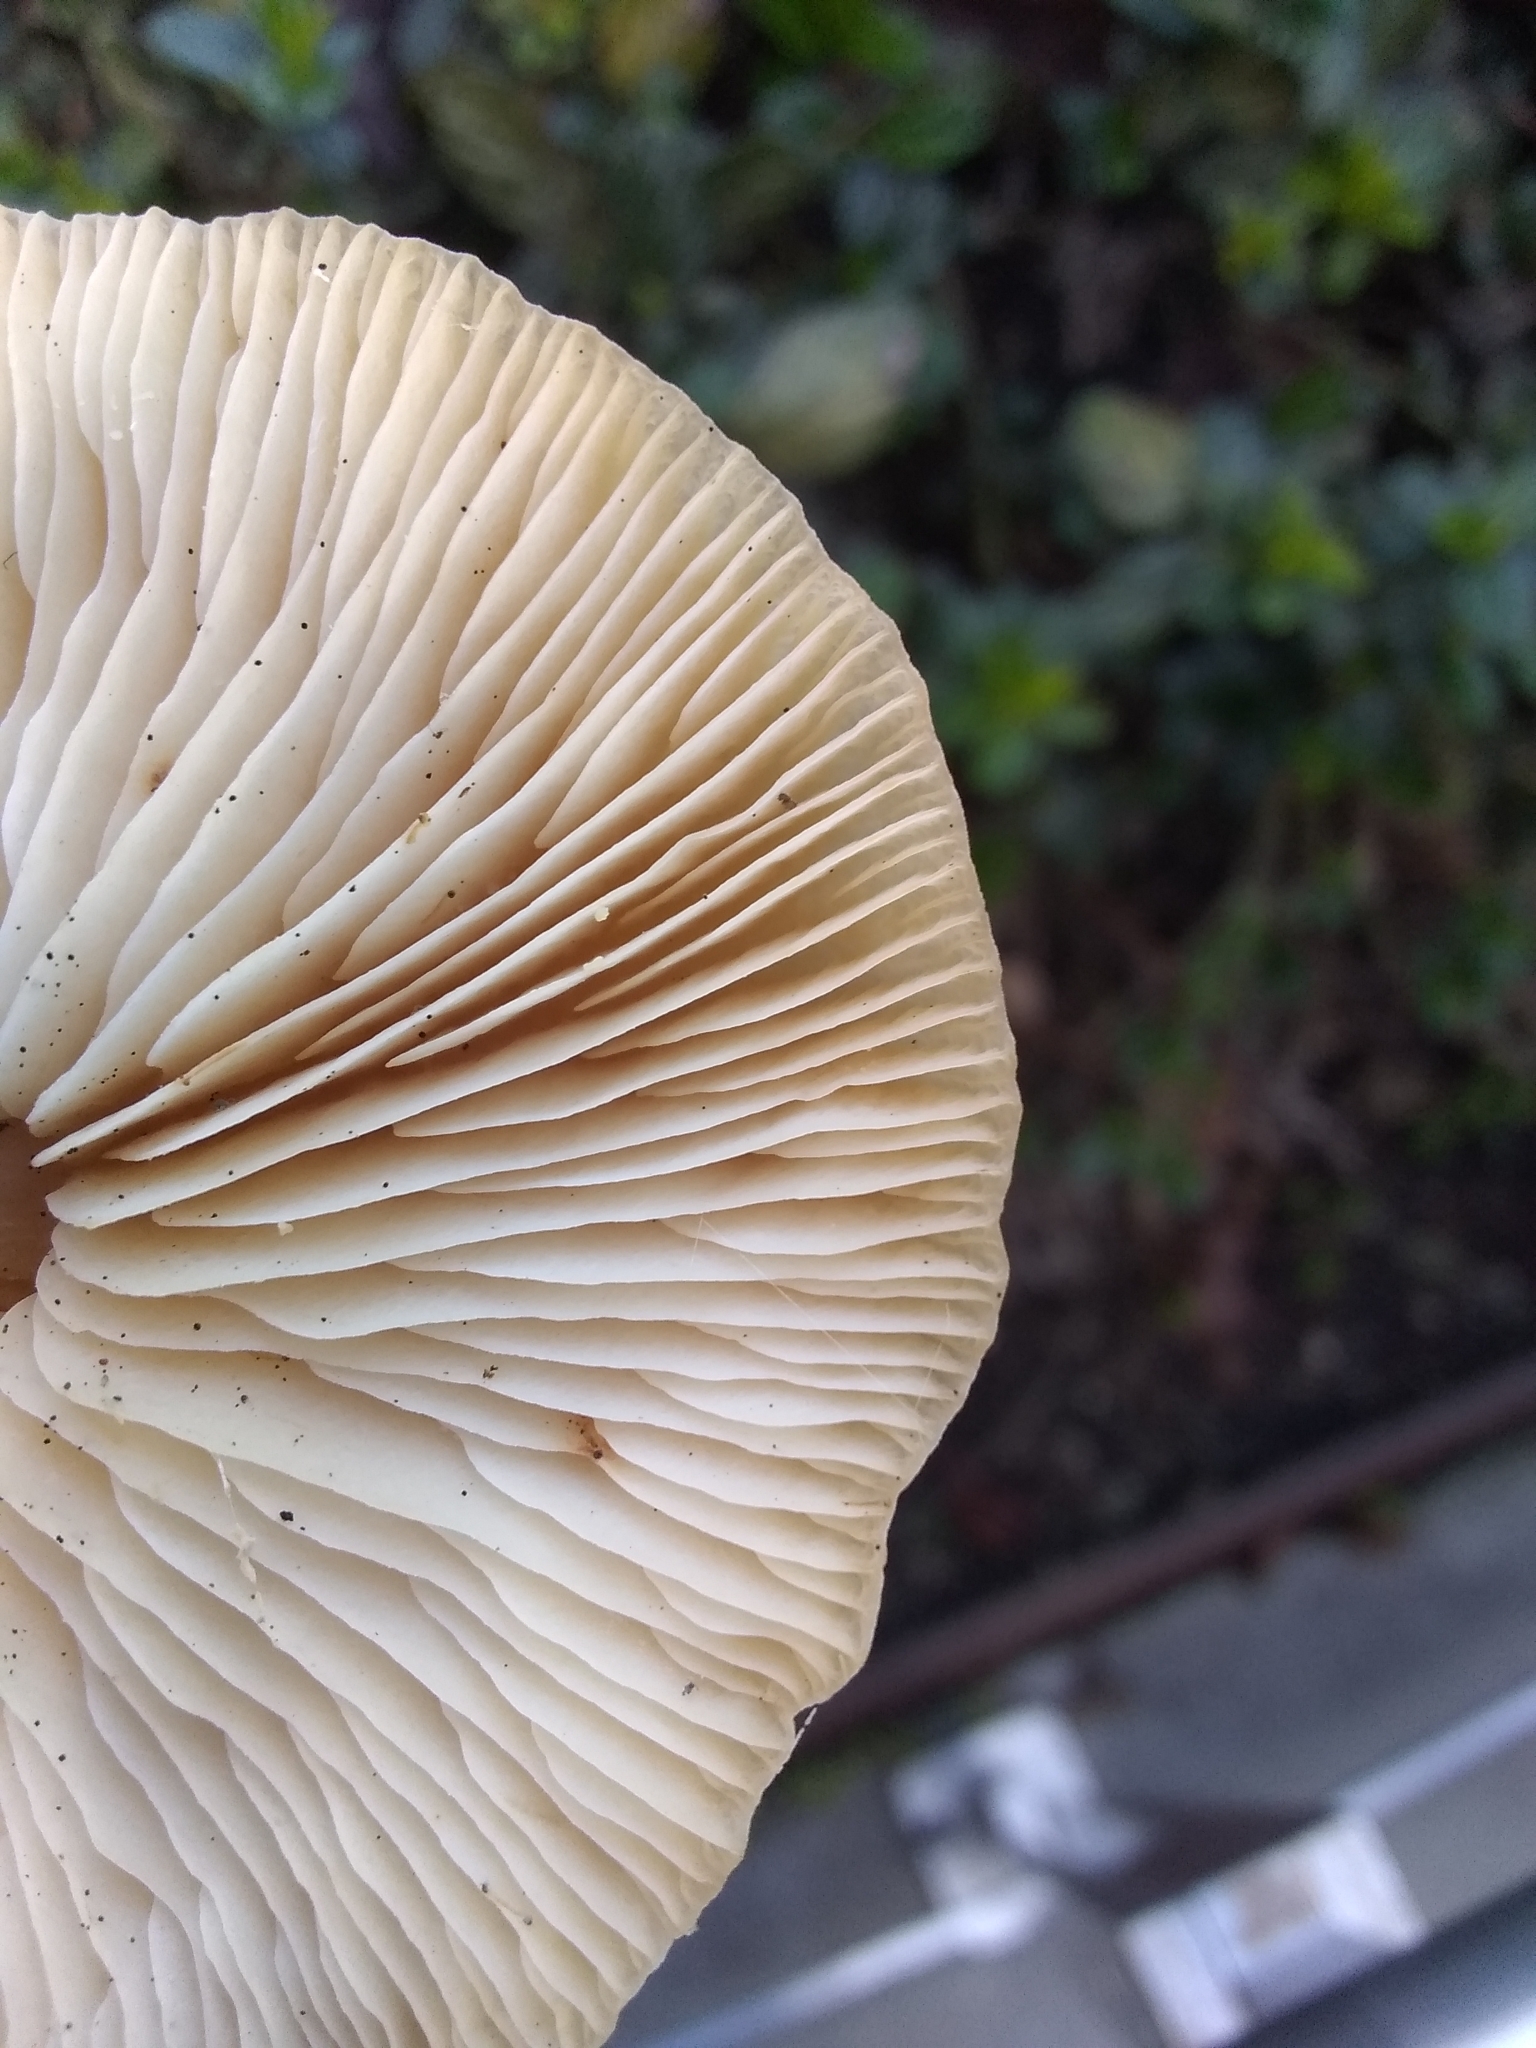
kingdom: Fungi
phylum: Basidiomycota
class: Agaricomycetes
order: Agaricales
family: Omphalotaceae
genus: Gymnopus
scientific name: Gymnopus dryophilus
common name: Penny top
